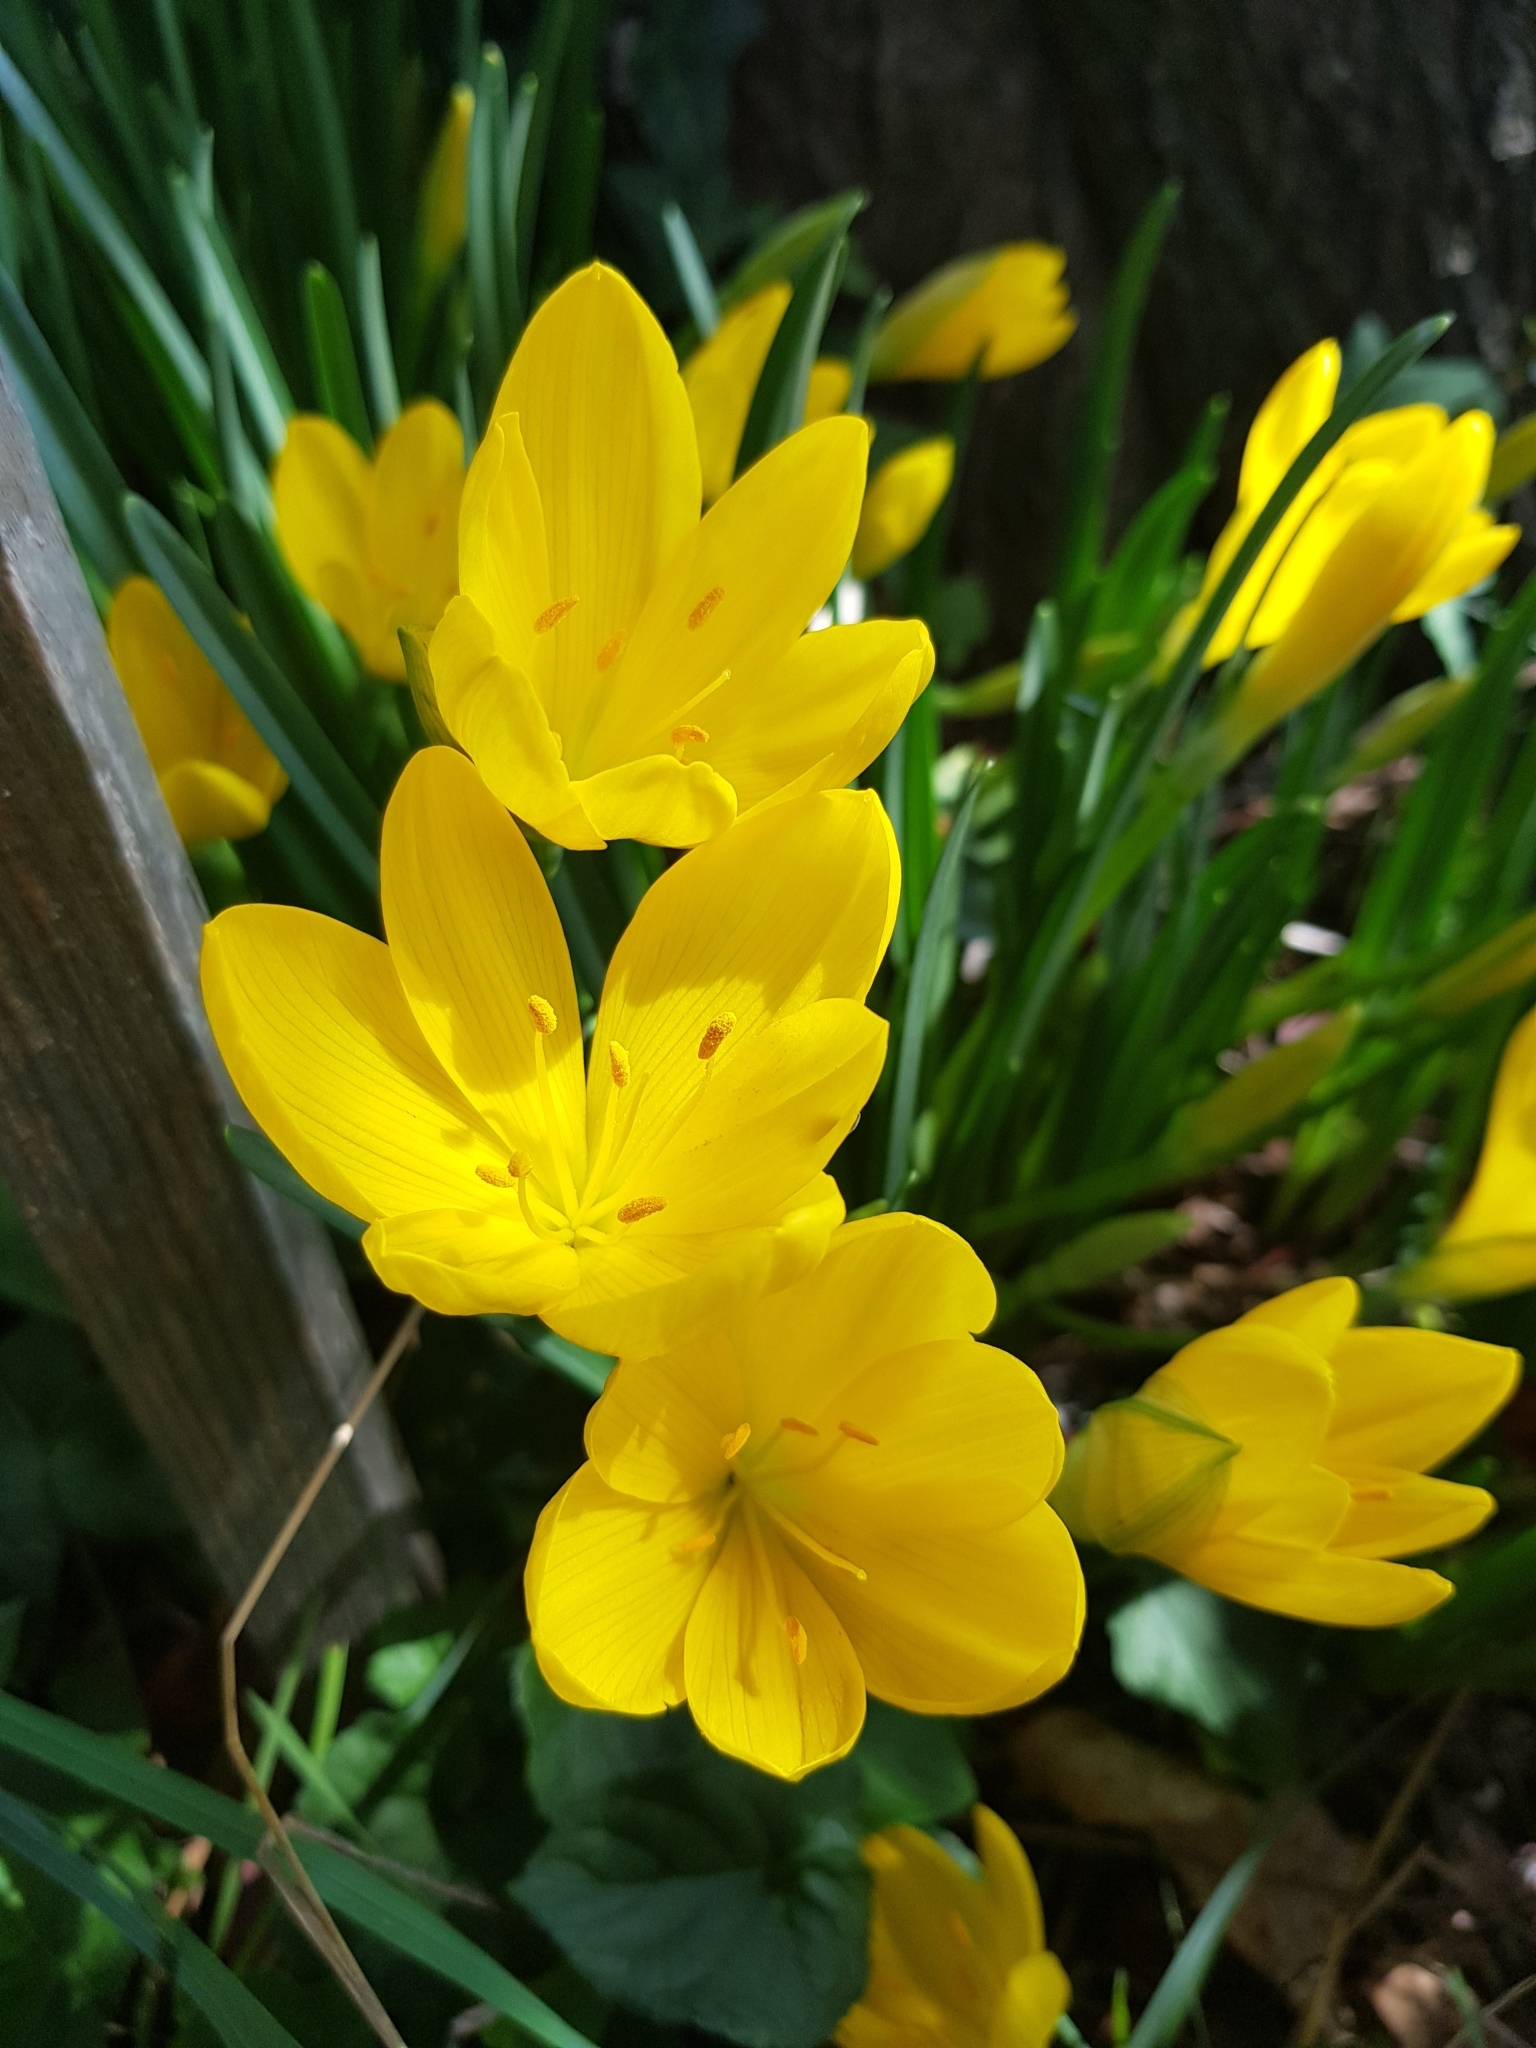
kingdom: Plantae
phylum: Tracheophyta
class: Liliopsida
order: Asparagales
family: Amaryllidaceae
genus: Sternbergia
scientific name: Sternbergia lutea
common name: Winter daffodil
